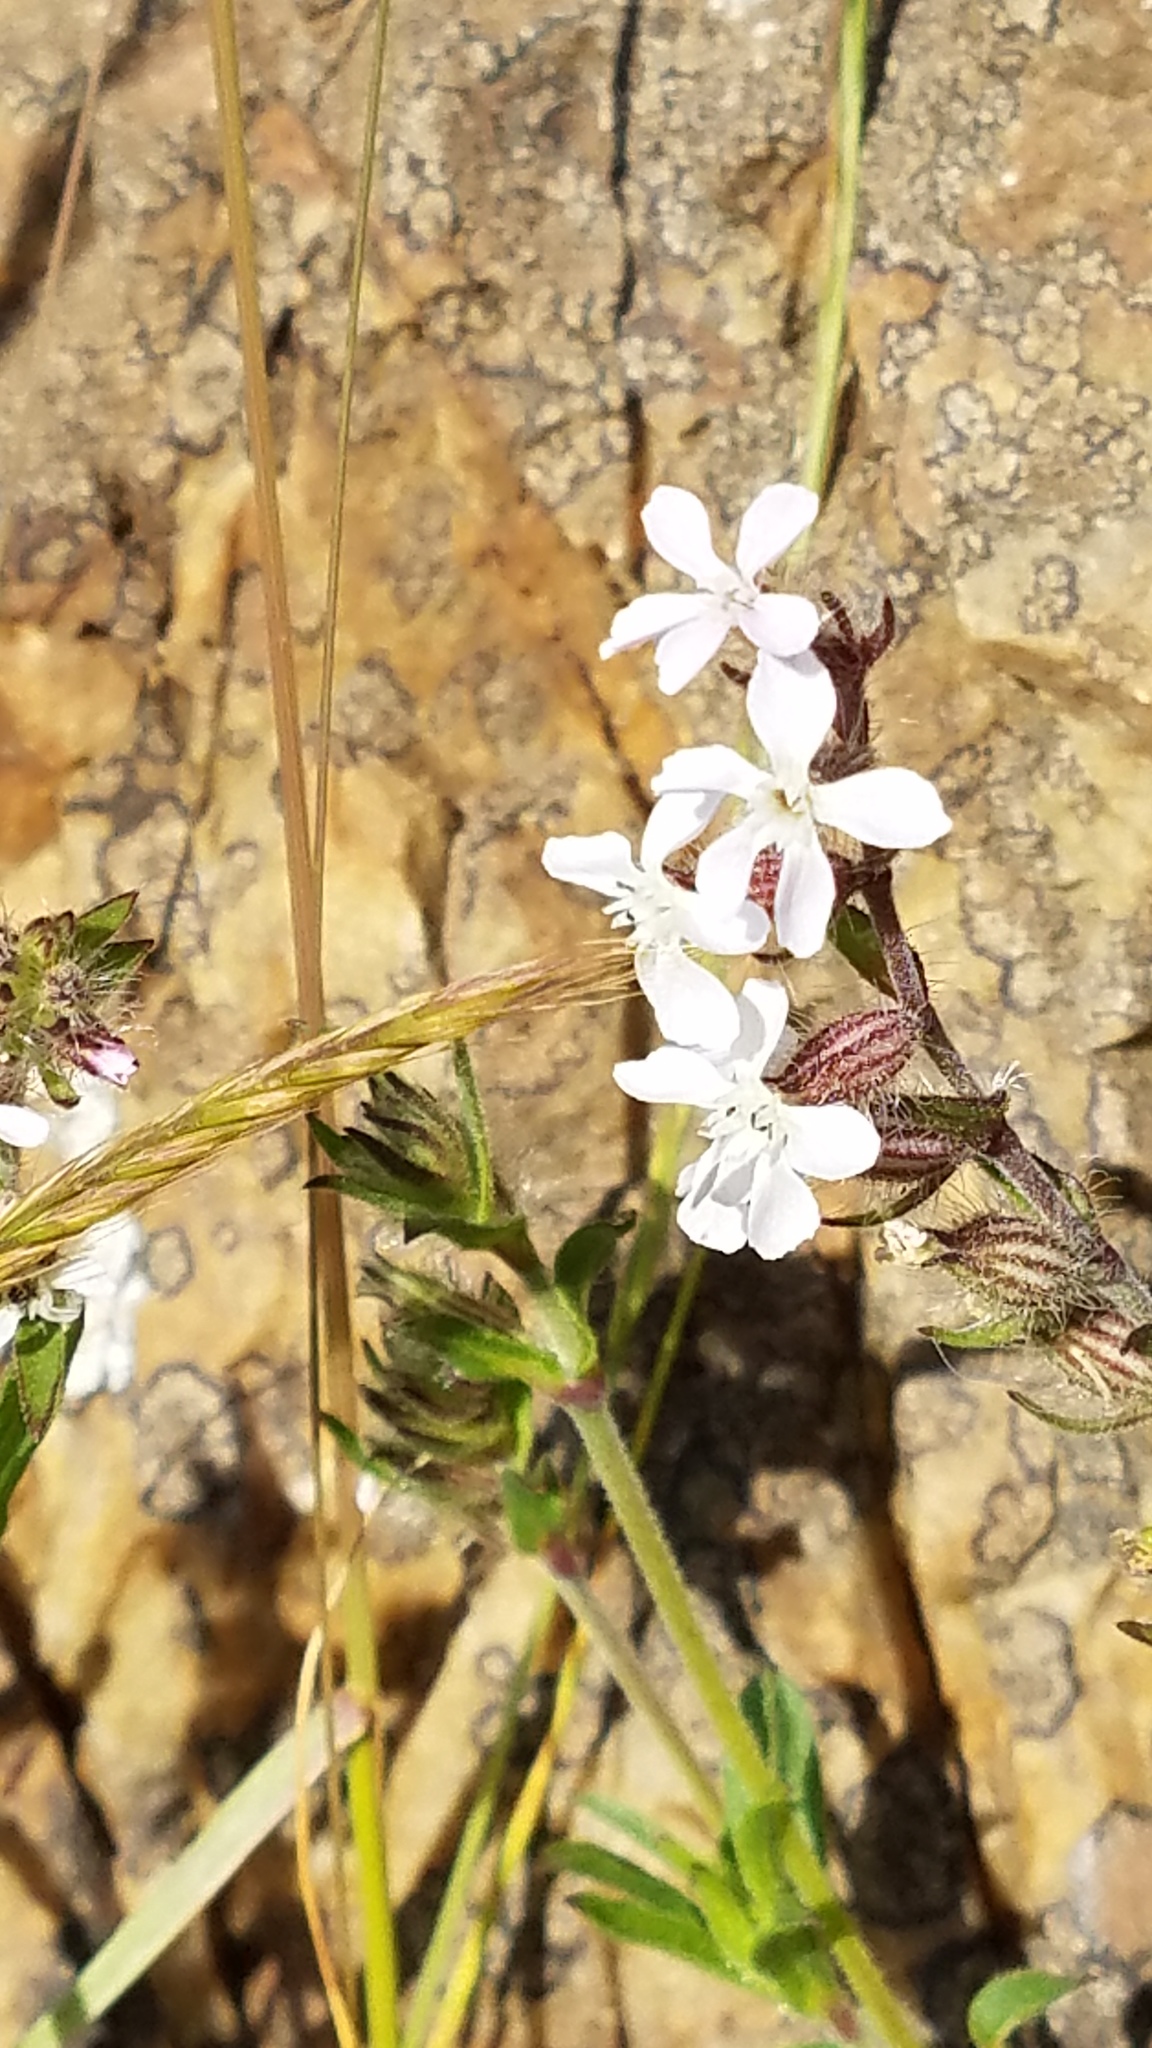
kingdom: Plantae
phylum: Tracheophyta
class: Magnoliopsida
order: Caryophyllales
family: Caryophyllaceae
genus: Silene
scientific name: Silene gallica
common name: Small-flowered catchfly
